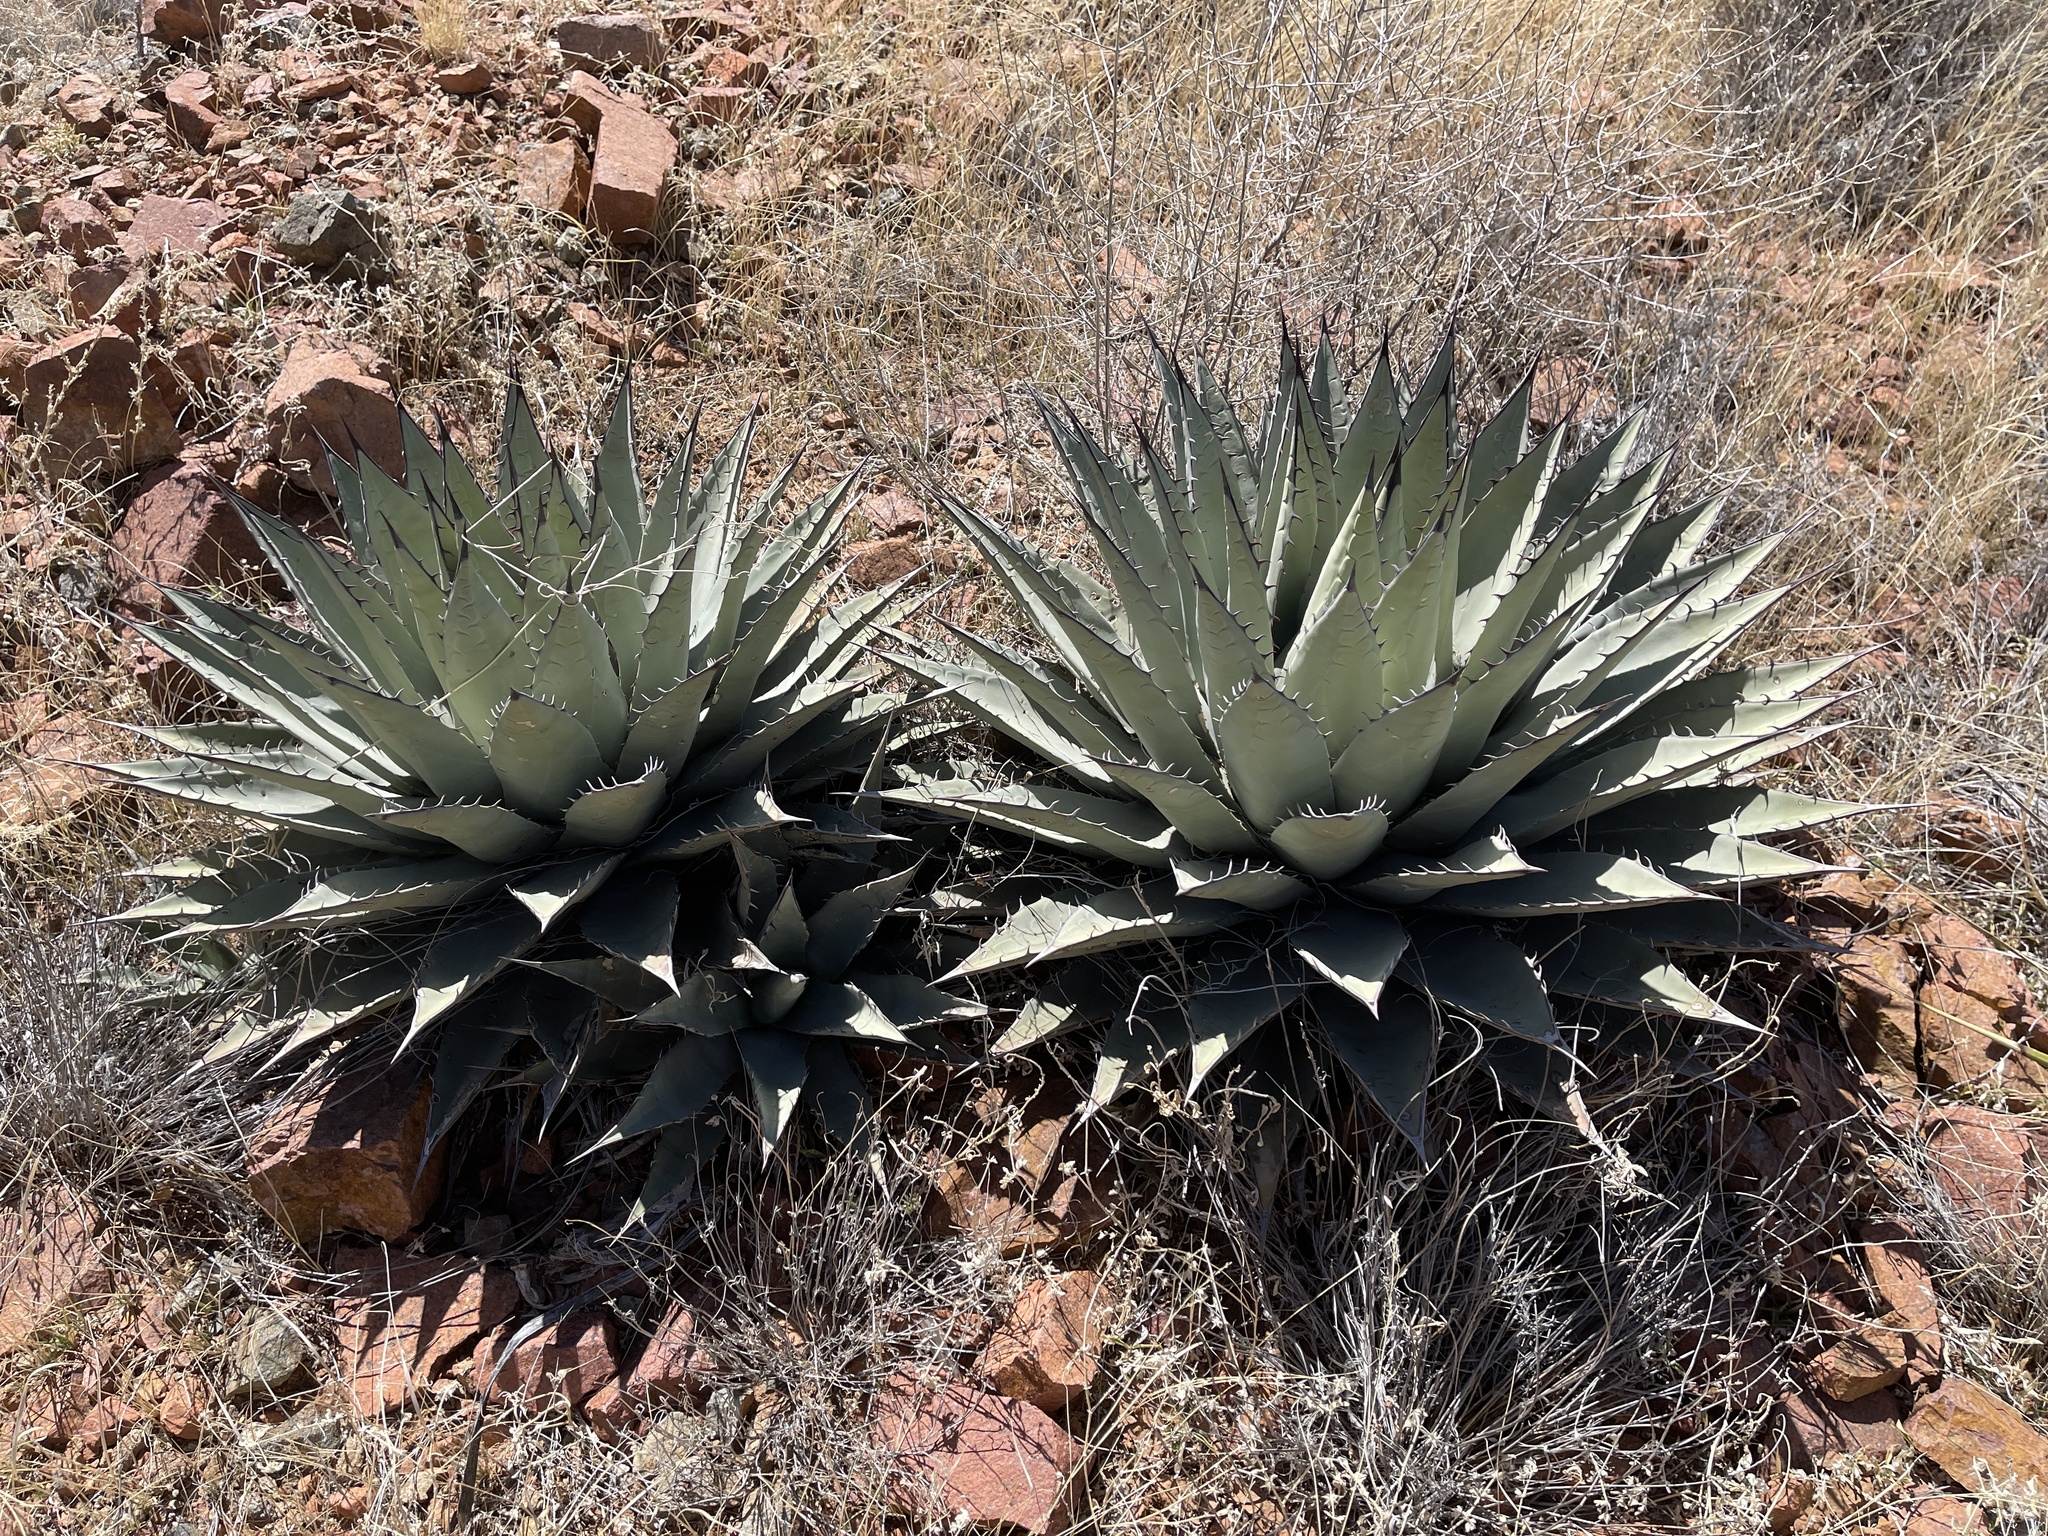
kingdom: Plantae
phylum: Tracheophyta
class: Liliopsida
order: Asparagales
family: Asparagaceae
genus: Agave
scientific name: Agave parryi
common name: Parry's agave
